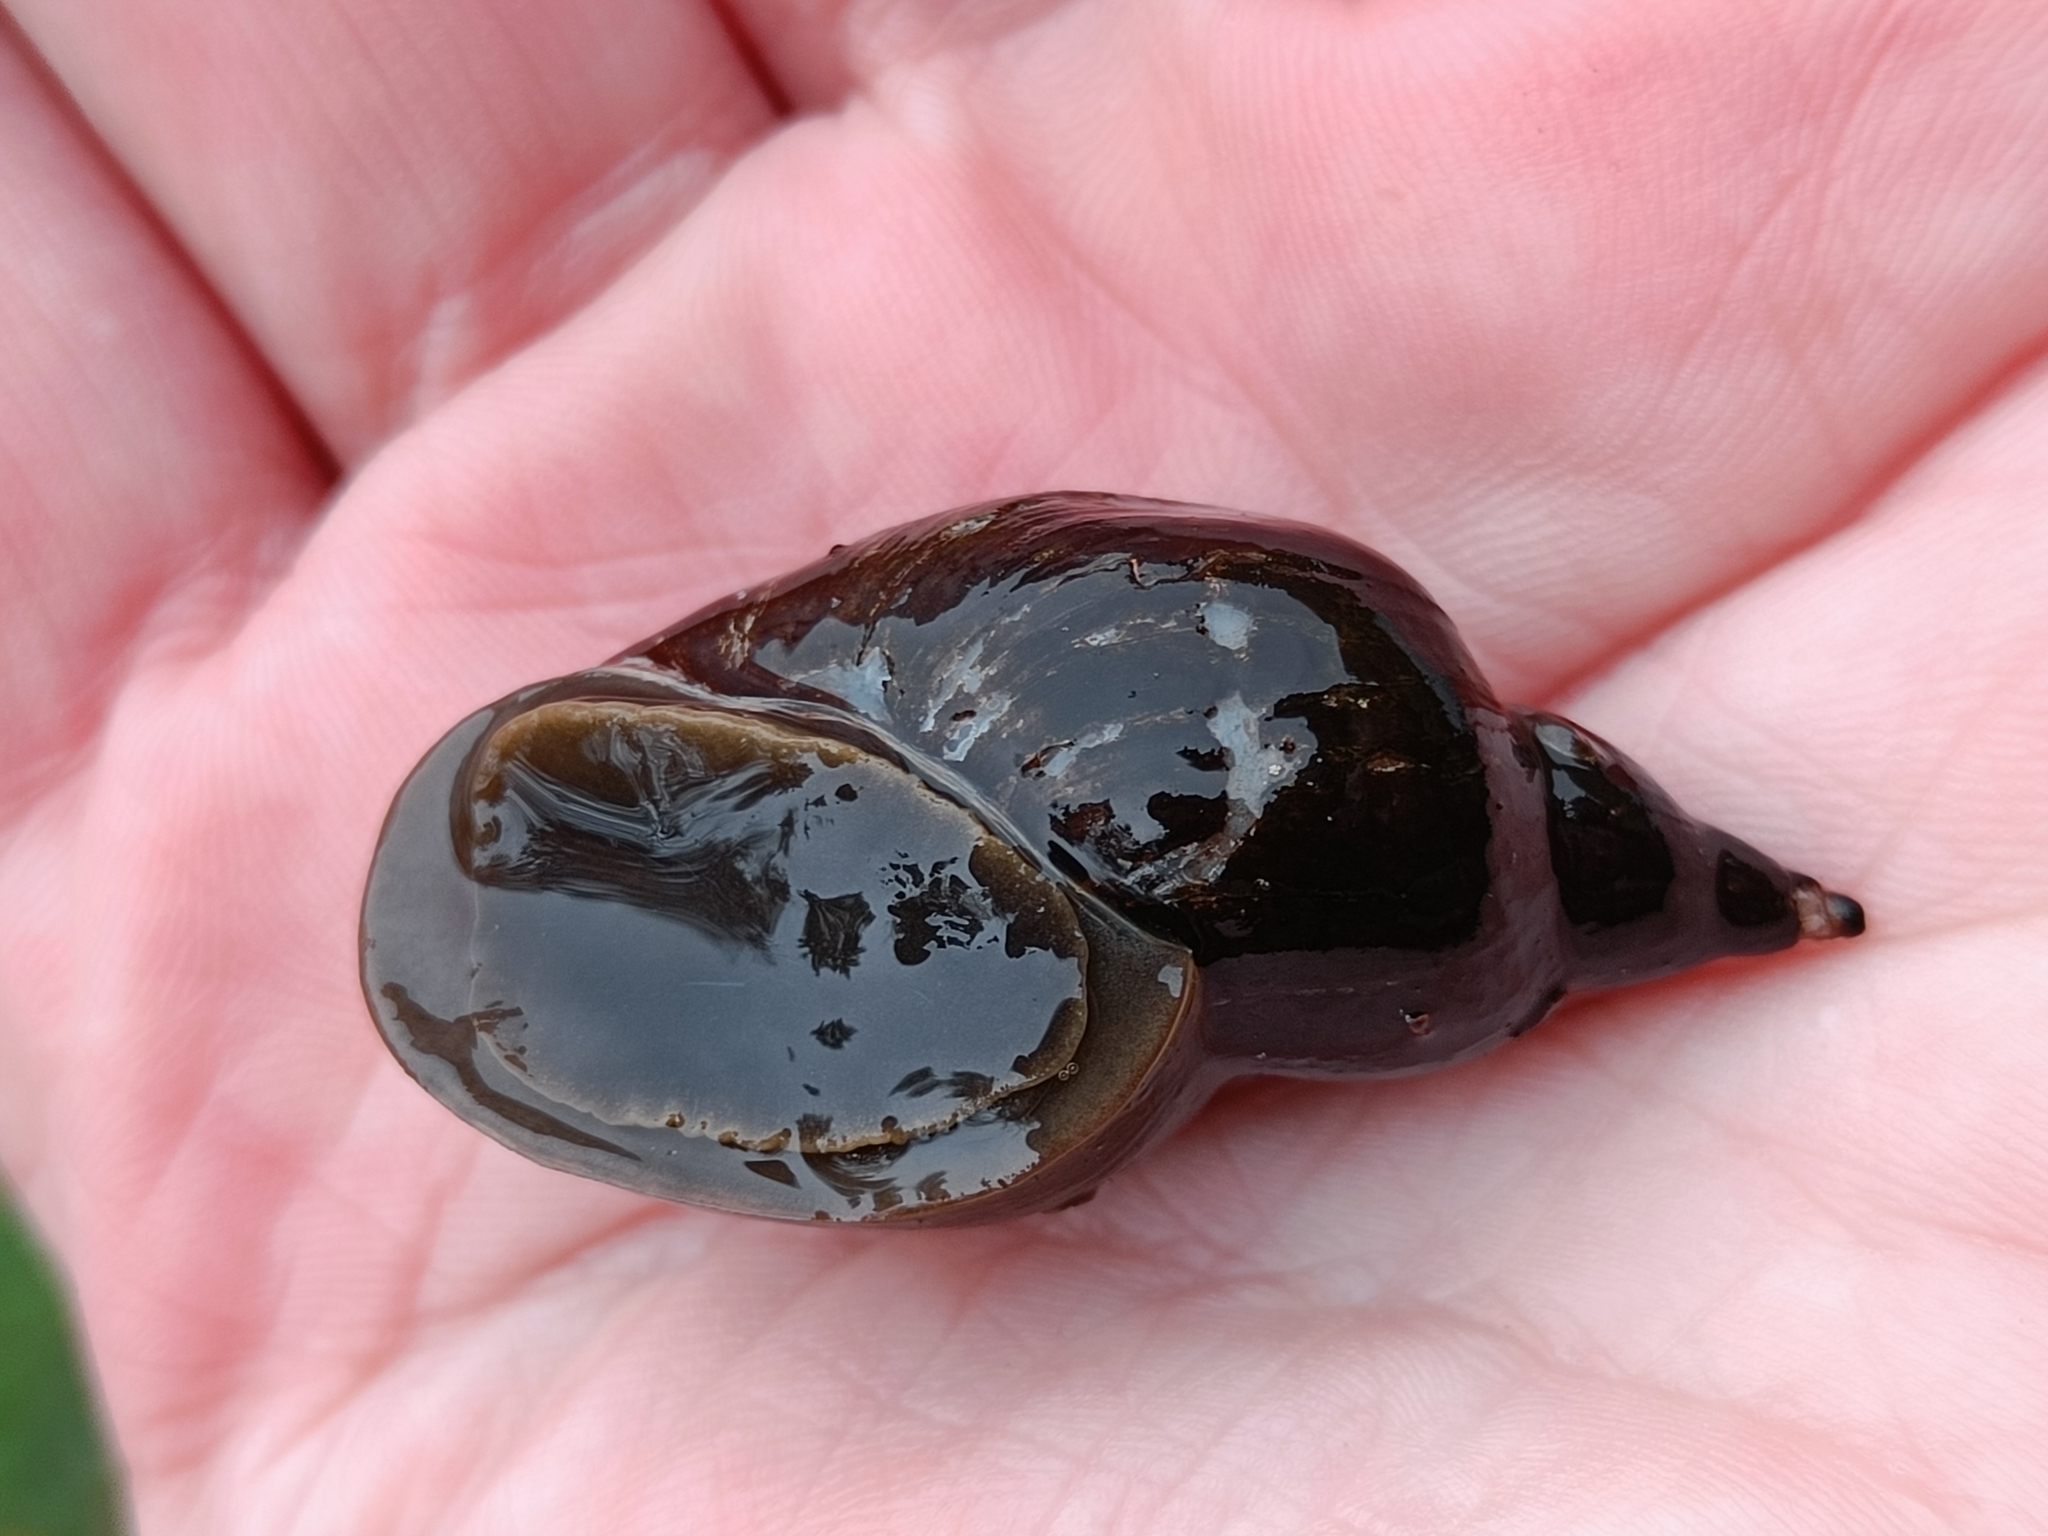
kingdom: Animalia
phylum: Mollusca
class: Gastropoda
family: Lymnaeidae
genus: Lymnaea
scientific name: Lymnaea stagnalis
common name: Great pond snail
